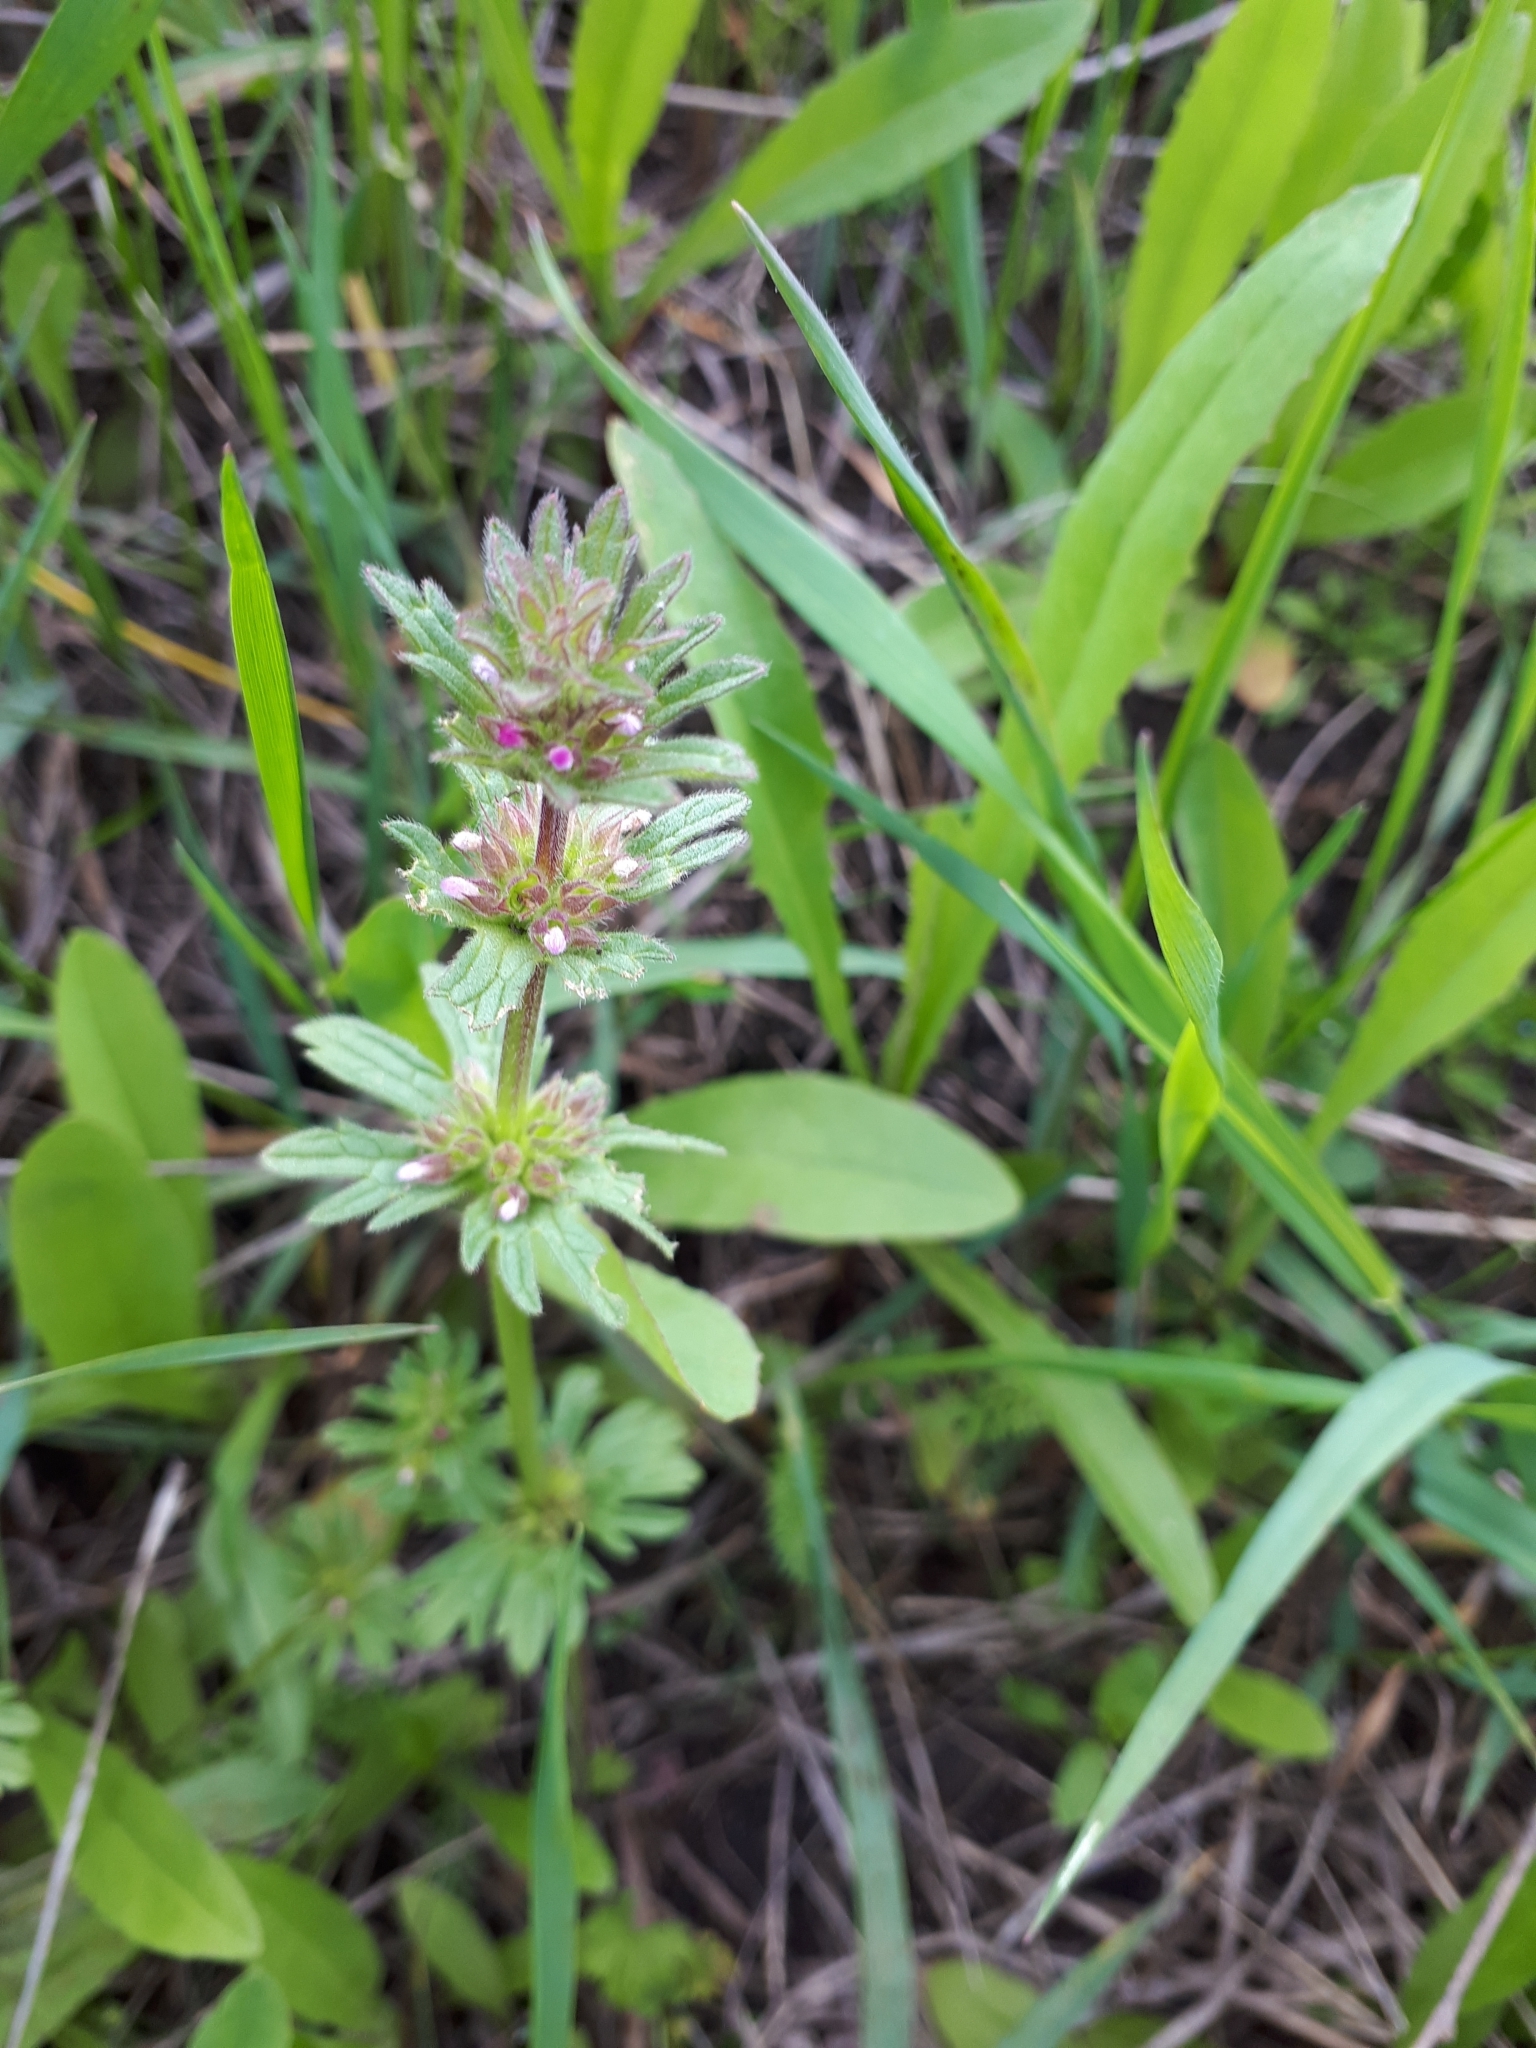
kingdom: Plantae
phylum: Tracheophyta
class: Magnoliopsida
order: Lamiales
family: Lamiaceae
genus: Lamium
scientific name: Lamium amplexicaule
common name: Henbit dead-nettle
